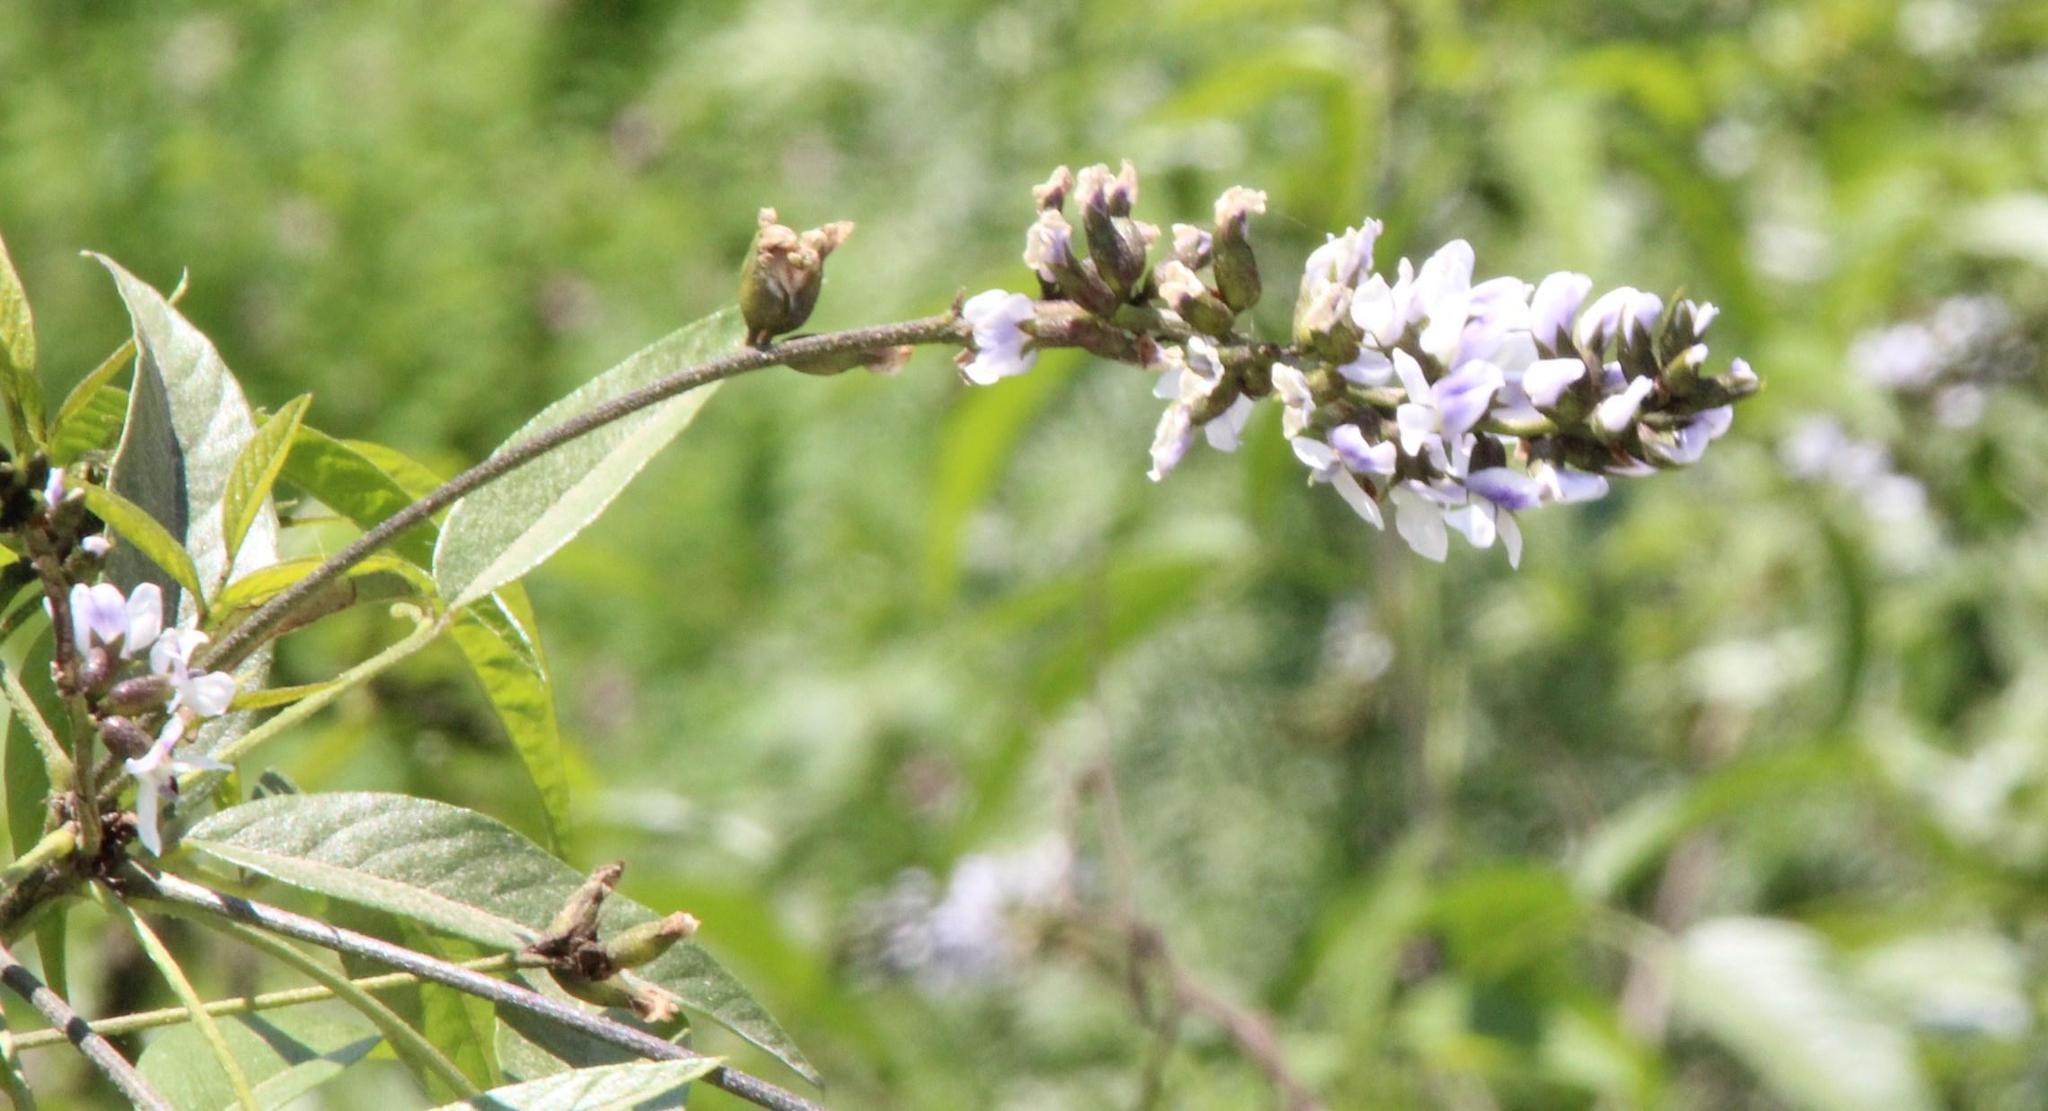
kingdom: Plantae
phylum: Tracheophyta
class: Magnoliopsida
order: Fabales
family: Fabaceae
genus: Psoralea
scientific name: Psoralea Otholobium glandulosum
